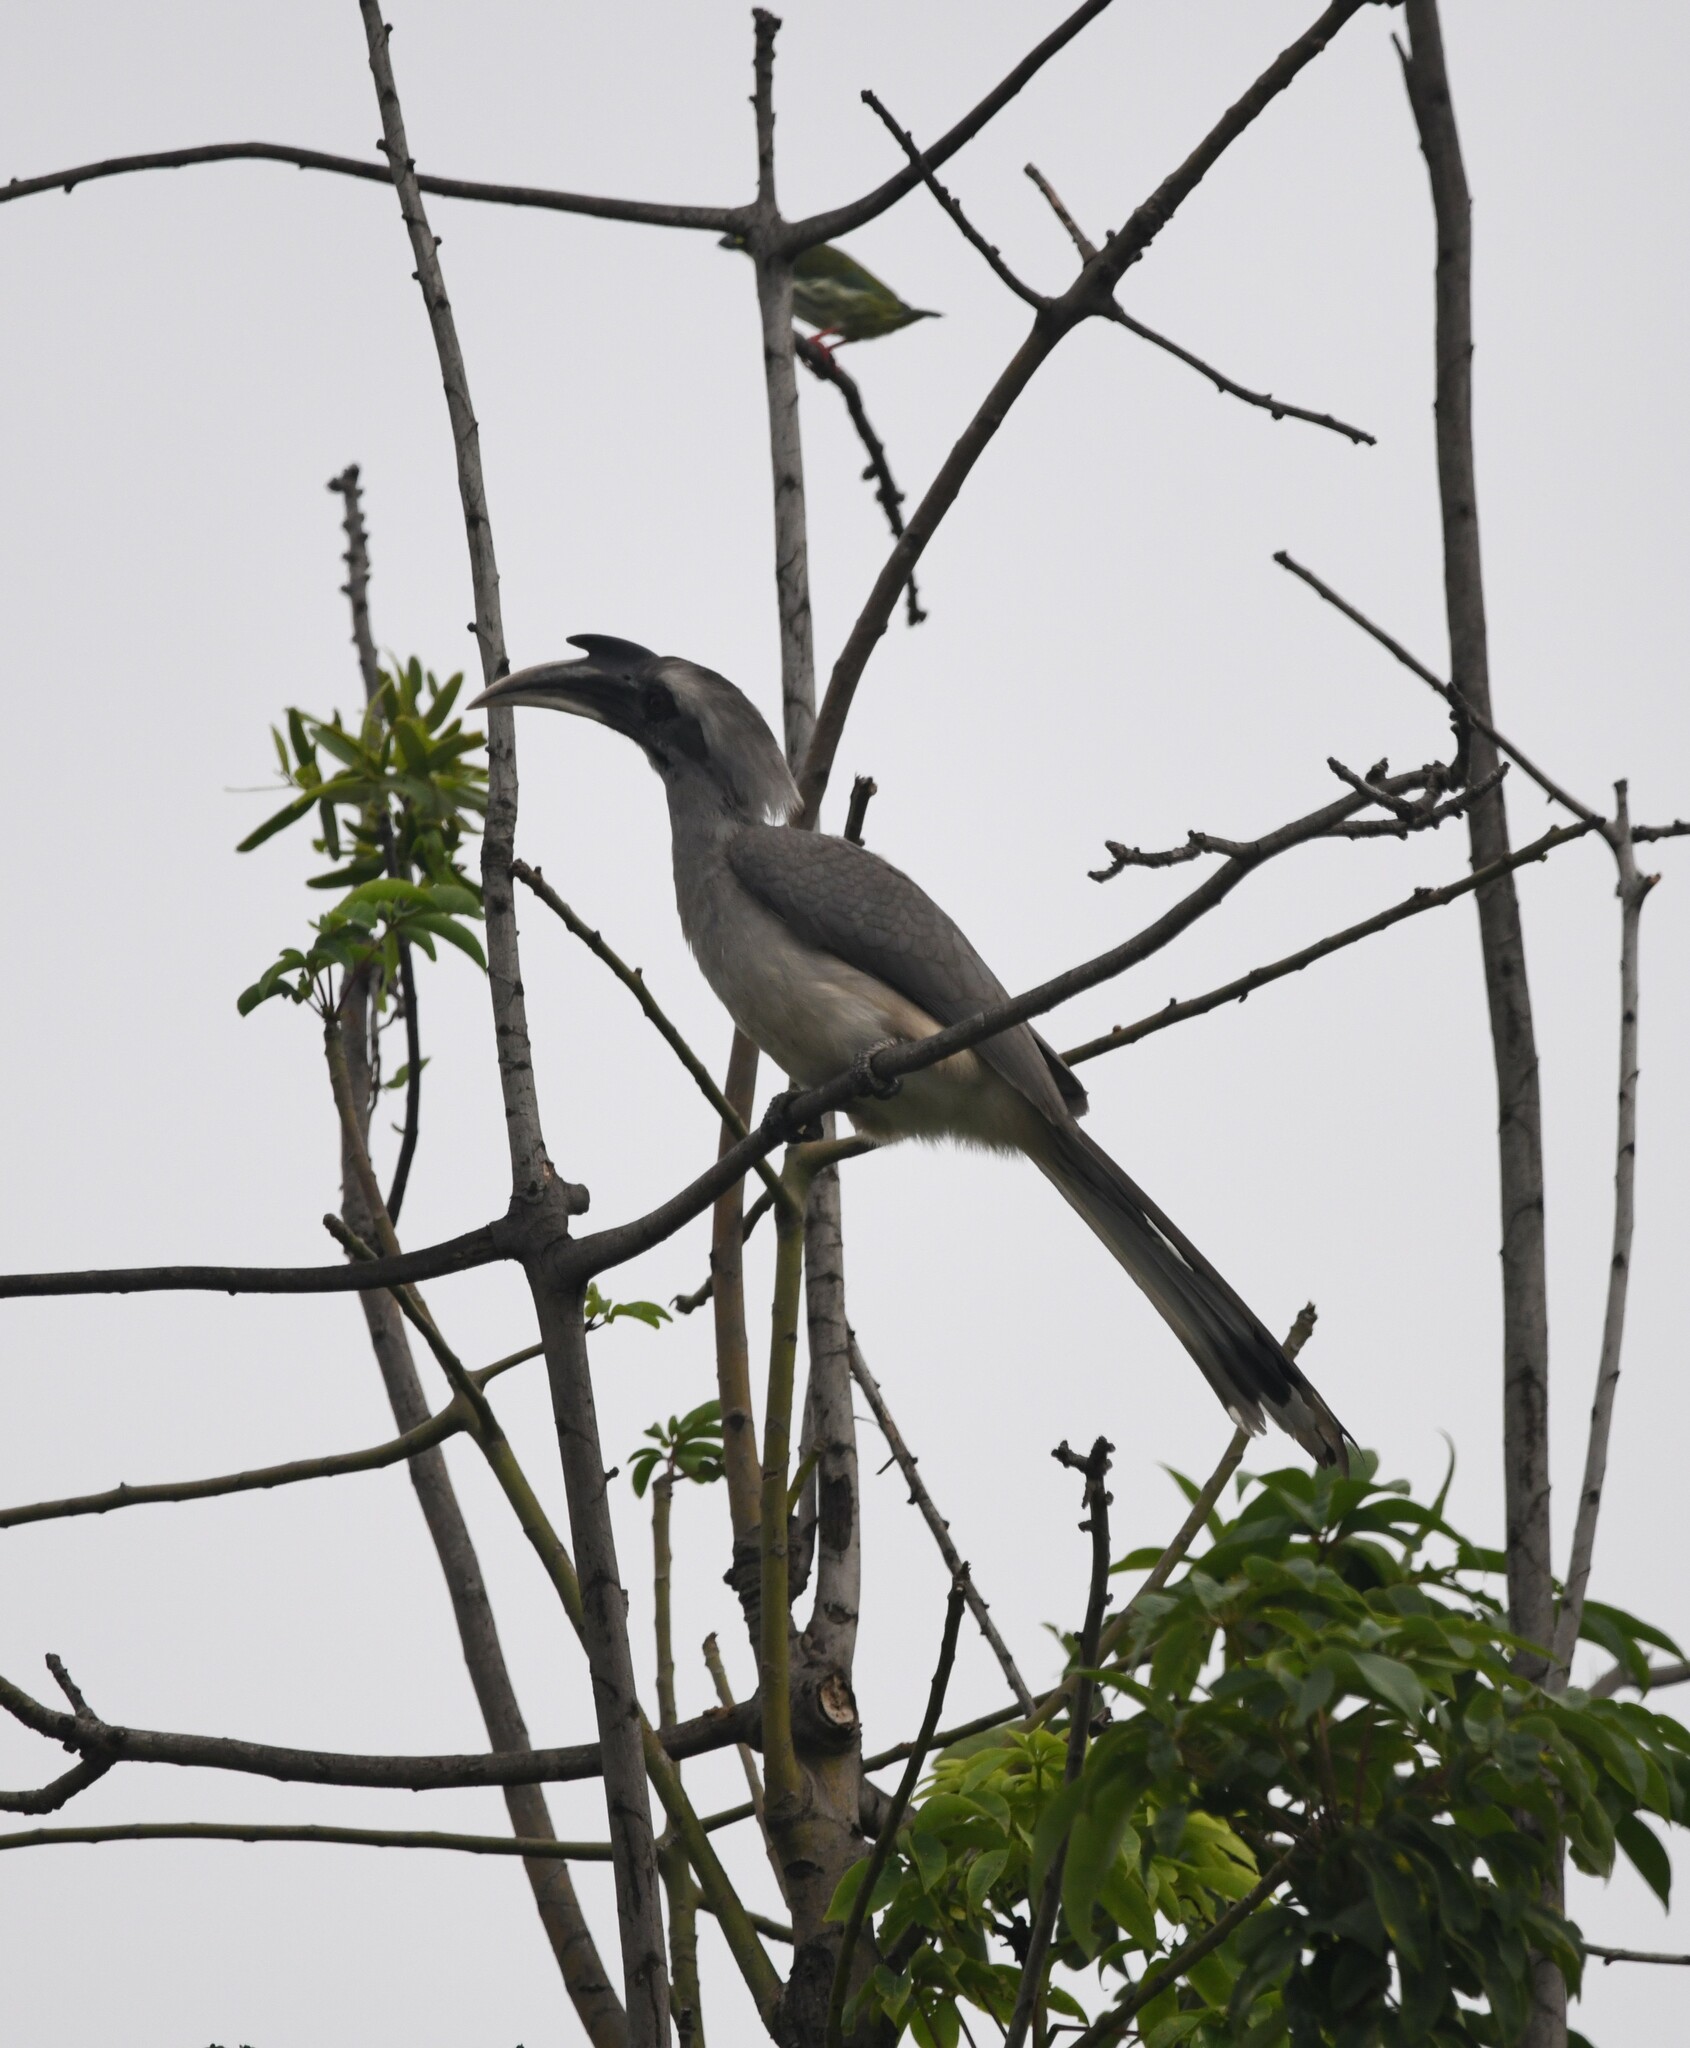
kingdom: Animalia
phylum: Chordata
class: Aves
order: Bucerotiformes
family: Bucerotidae
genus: Ocyceros
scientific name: Ocyceros birostris
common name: Indian grey hornbill
